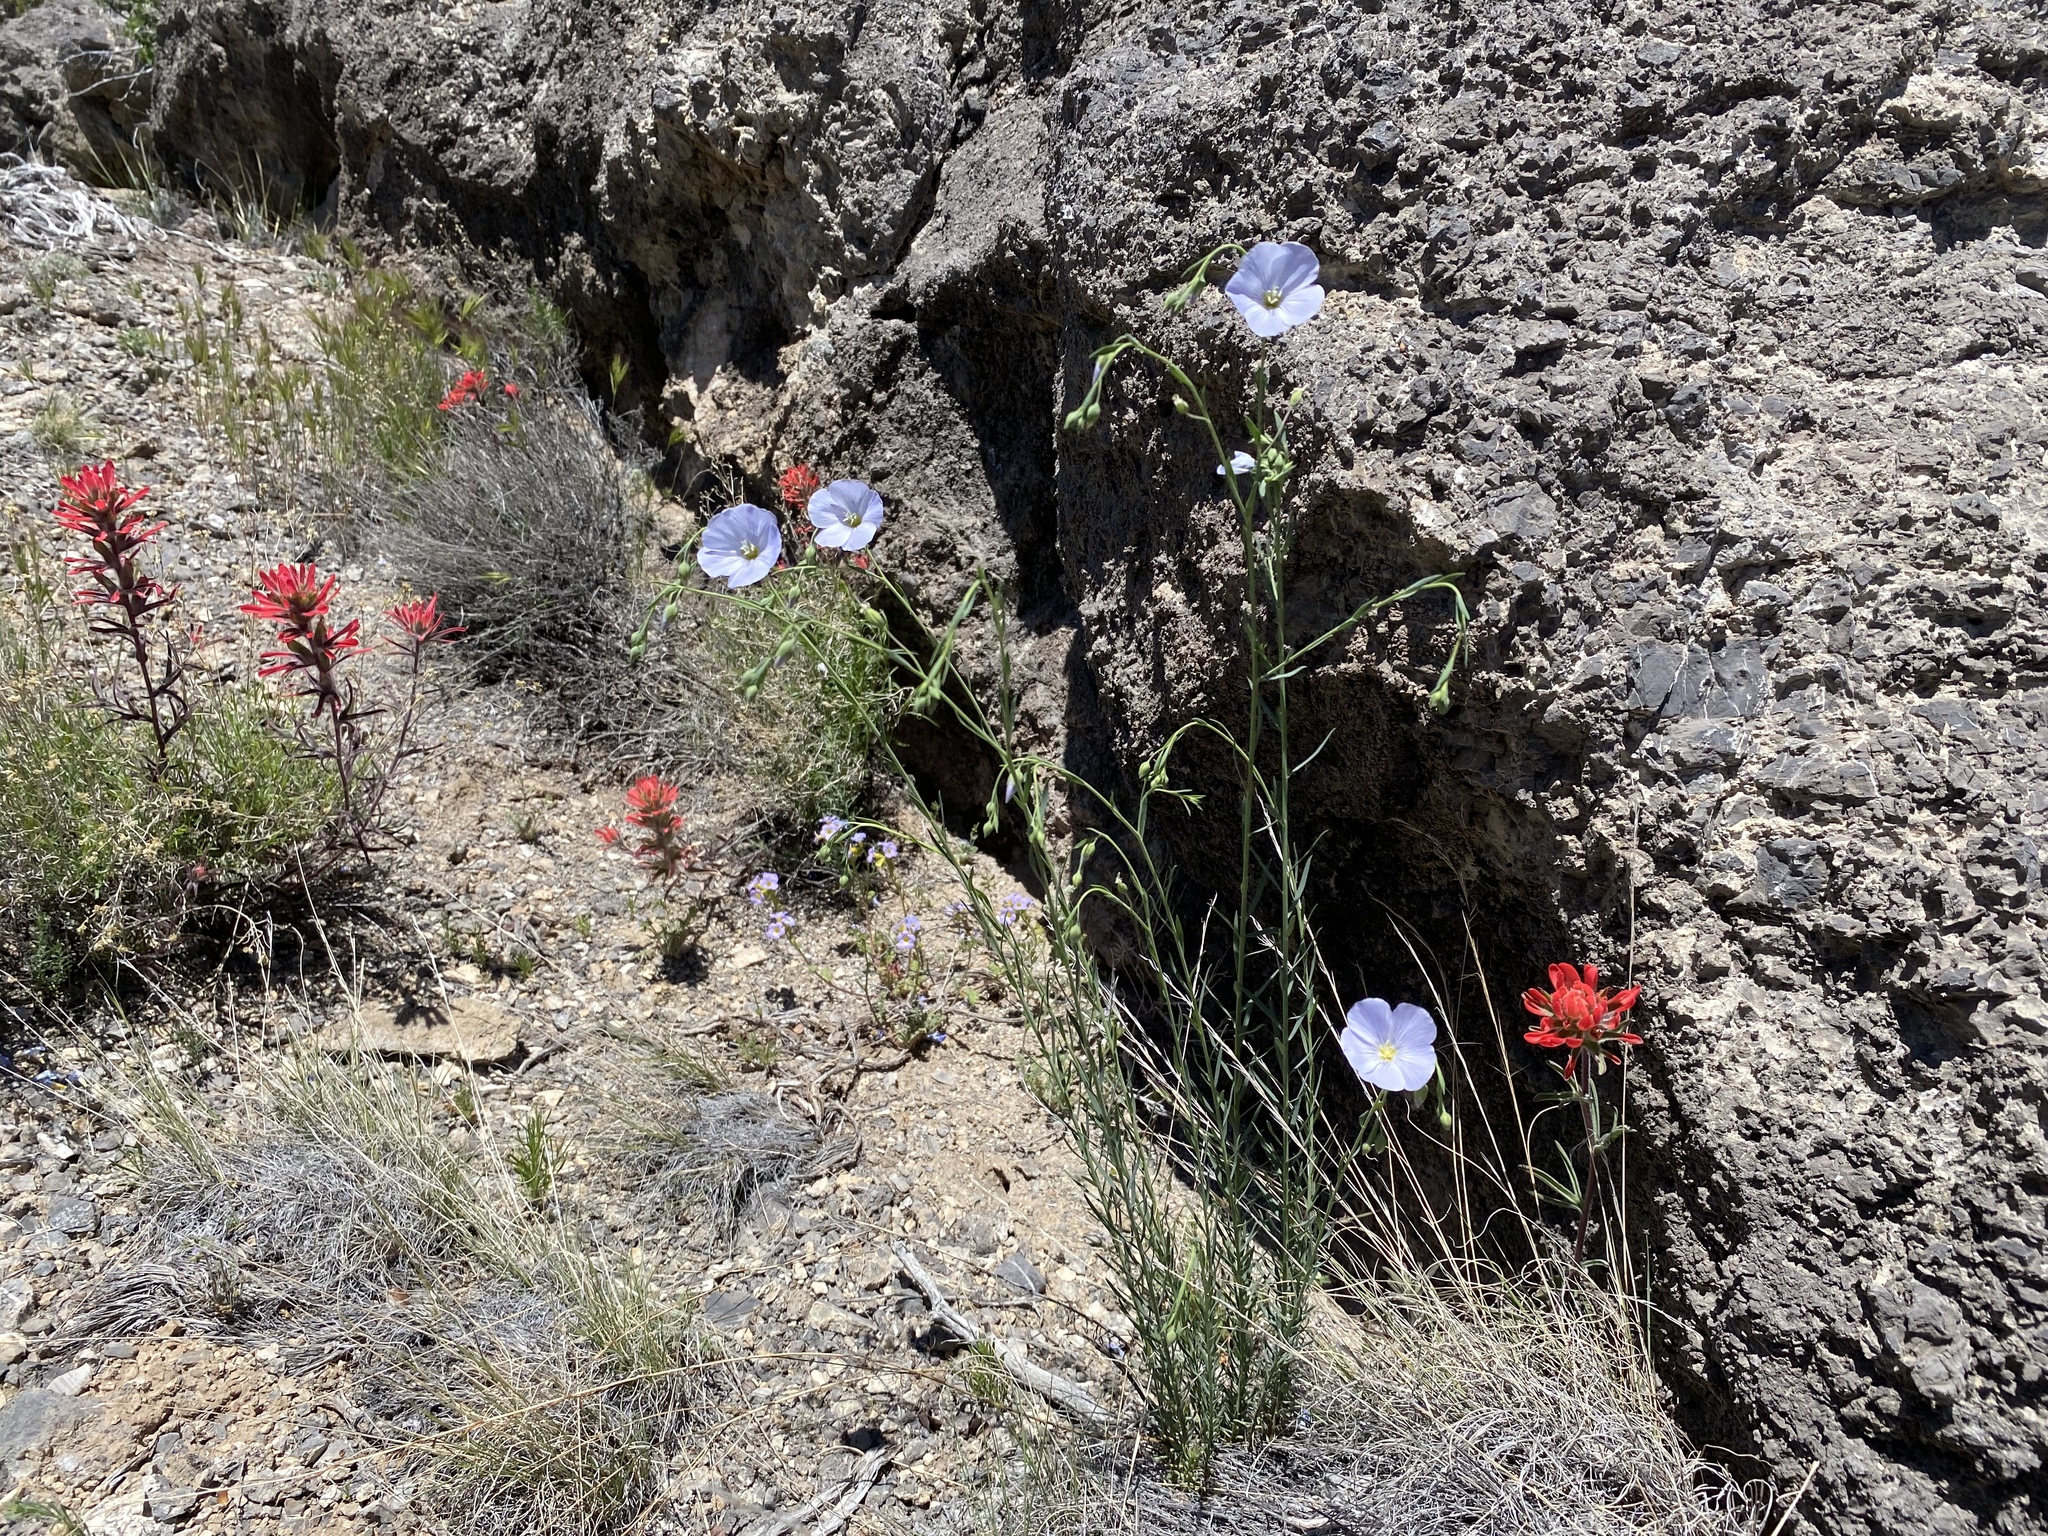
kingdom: Plantae
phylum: Tracheophyta
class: Magnoliopsida
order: Malpighiales
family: Linaceae
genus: Linum
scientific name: Linum lewisii
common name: Prairie flax
